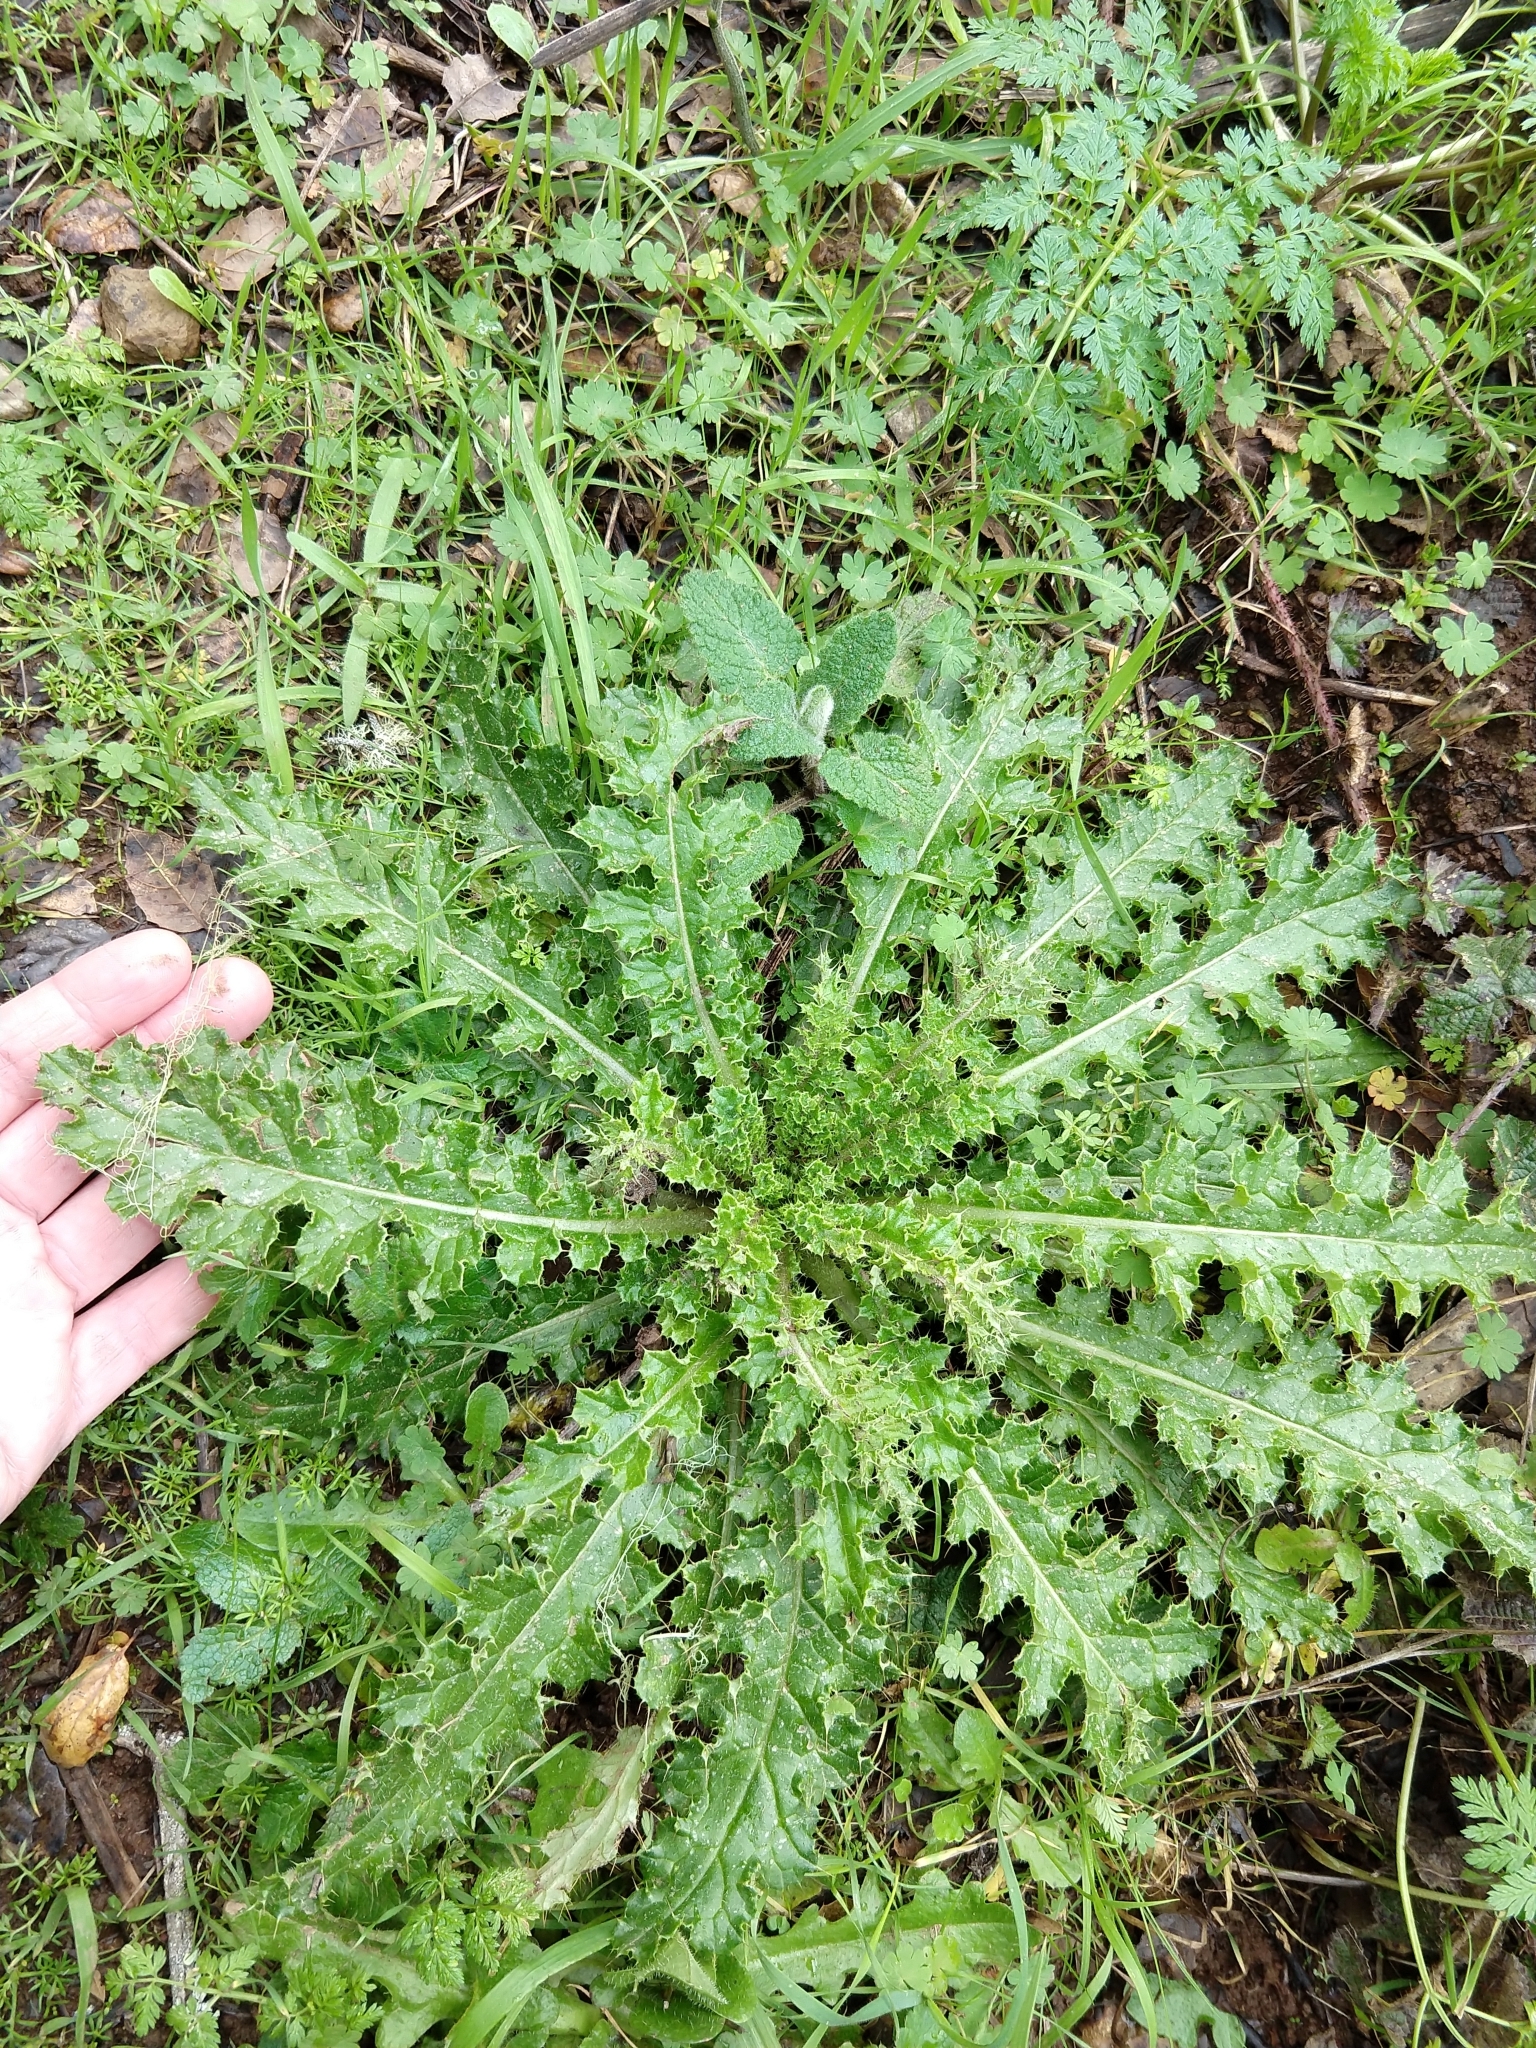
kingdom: Plantae
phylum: Tracheophyta
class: Magnoliopsida
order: Asterales
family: Asteraceae
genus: Cirsium
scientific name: Cirsium brevistylum
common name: Indian thistle
